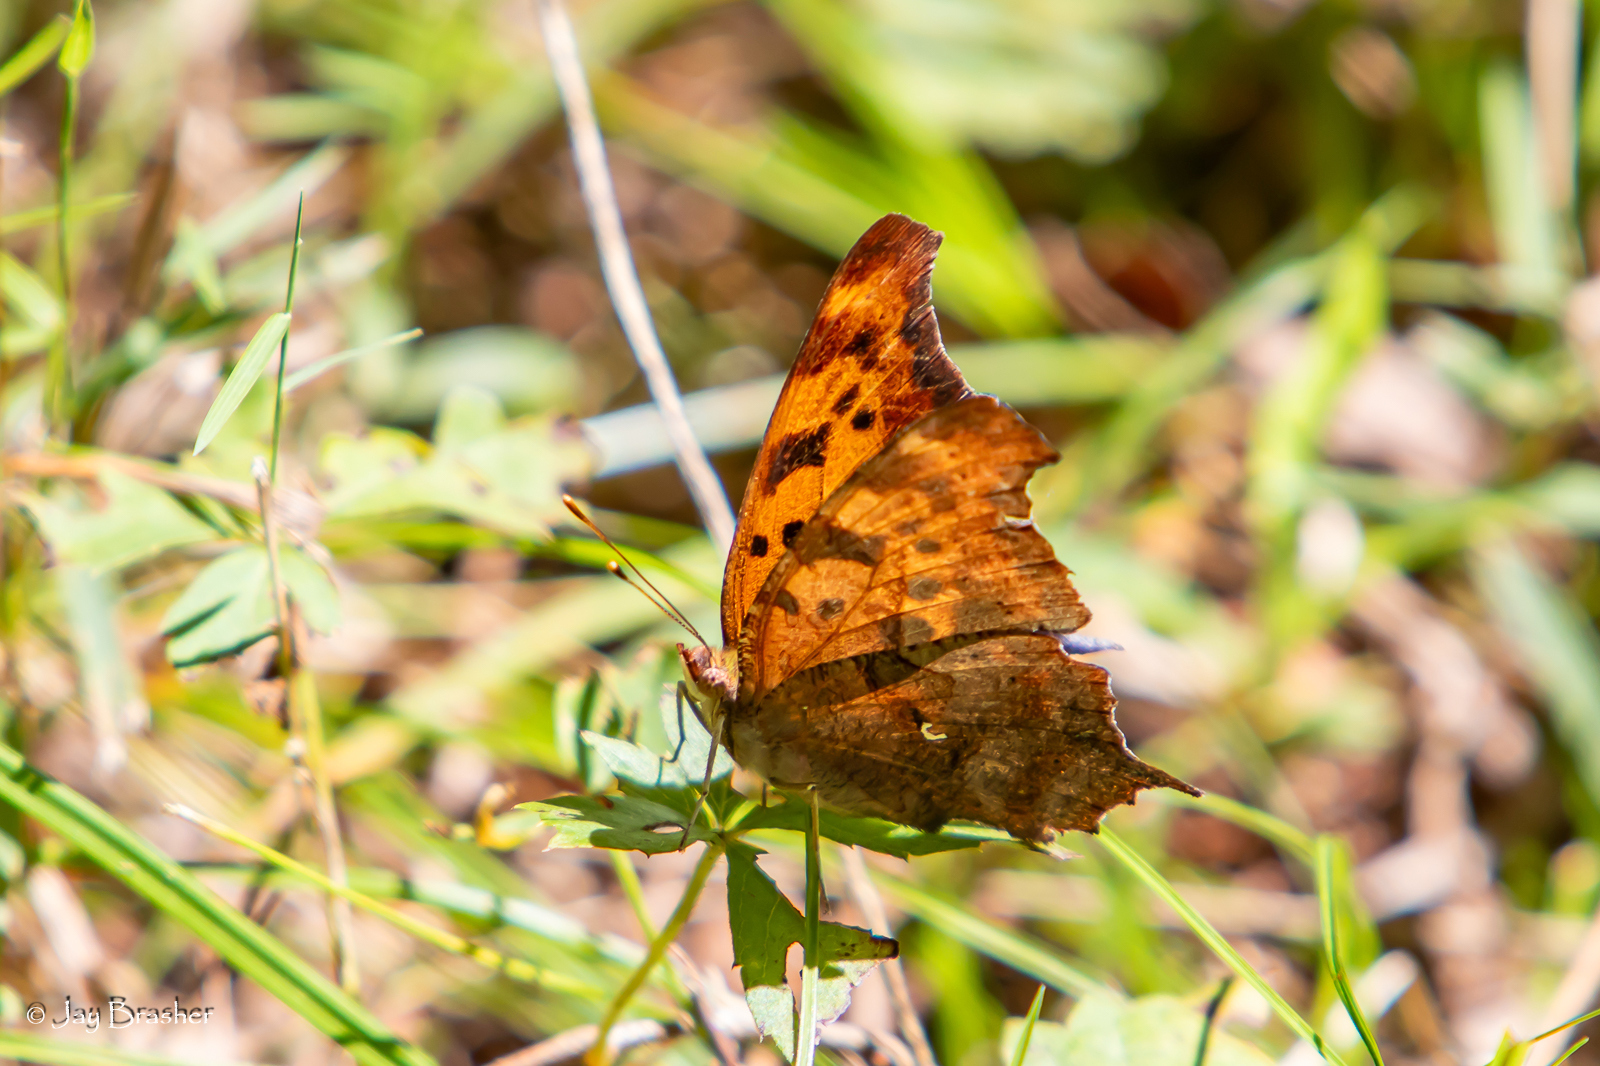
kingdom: Animalia
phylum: Arthropoda
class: Insecta
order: Lepidoptera
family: Nymphalidae
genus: Polygonia
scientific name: Polygonia comma
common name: Eastern comma
